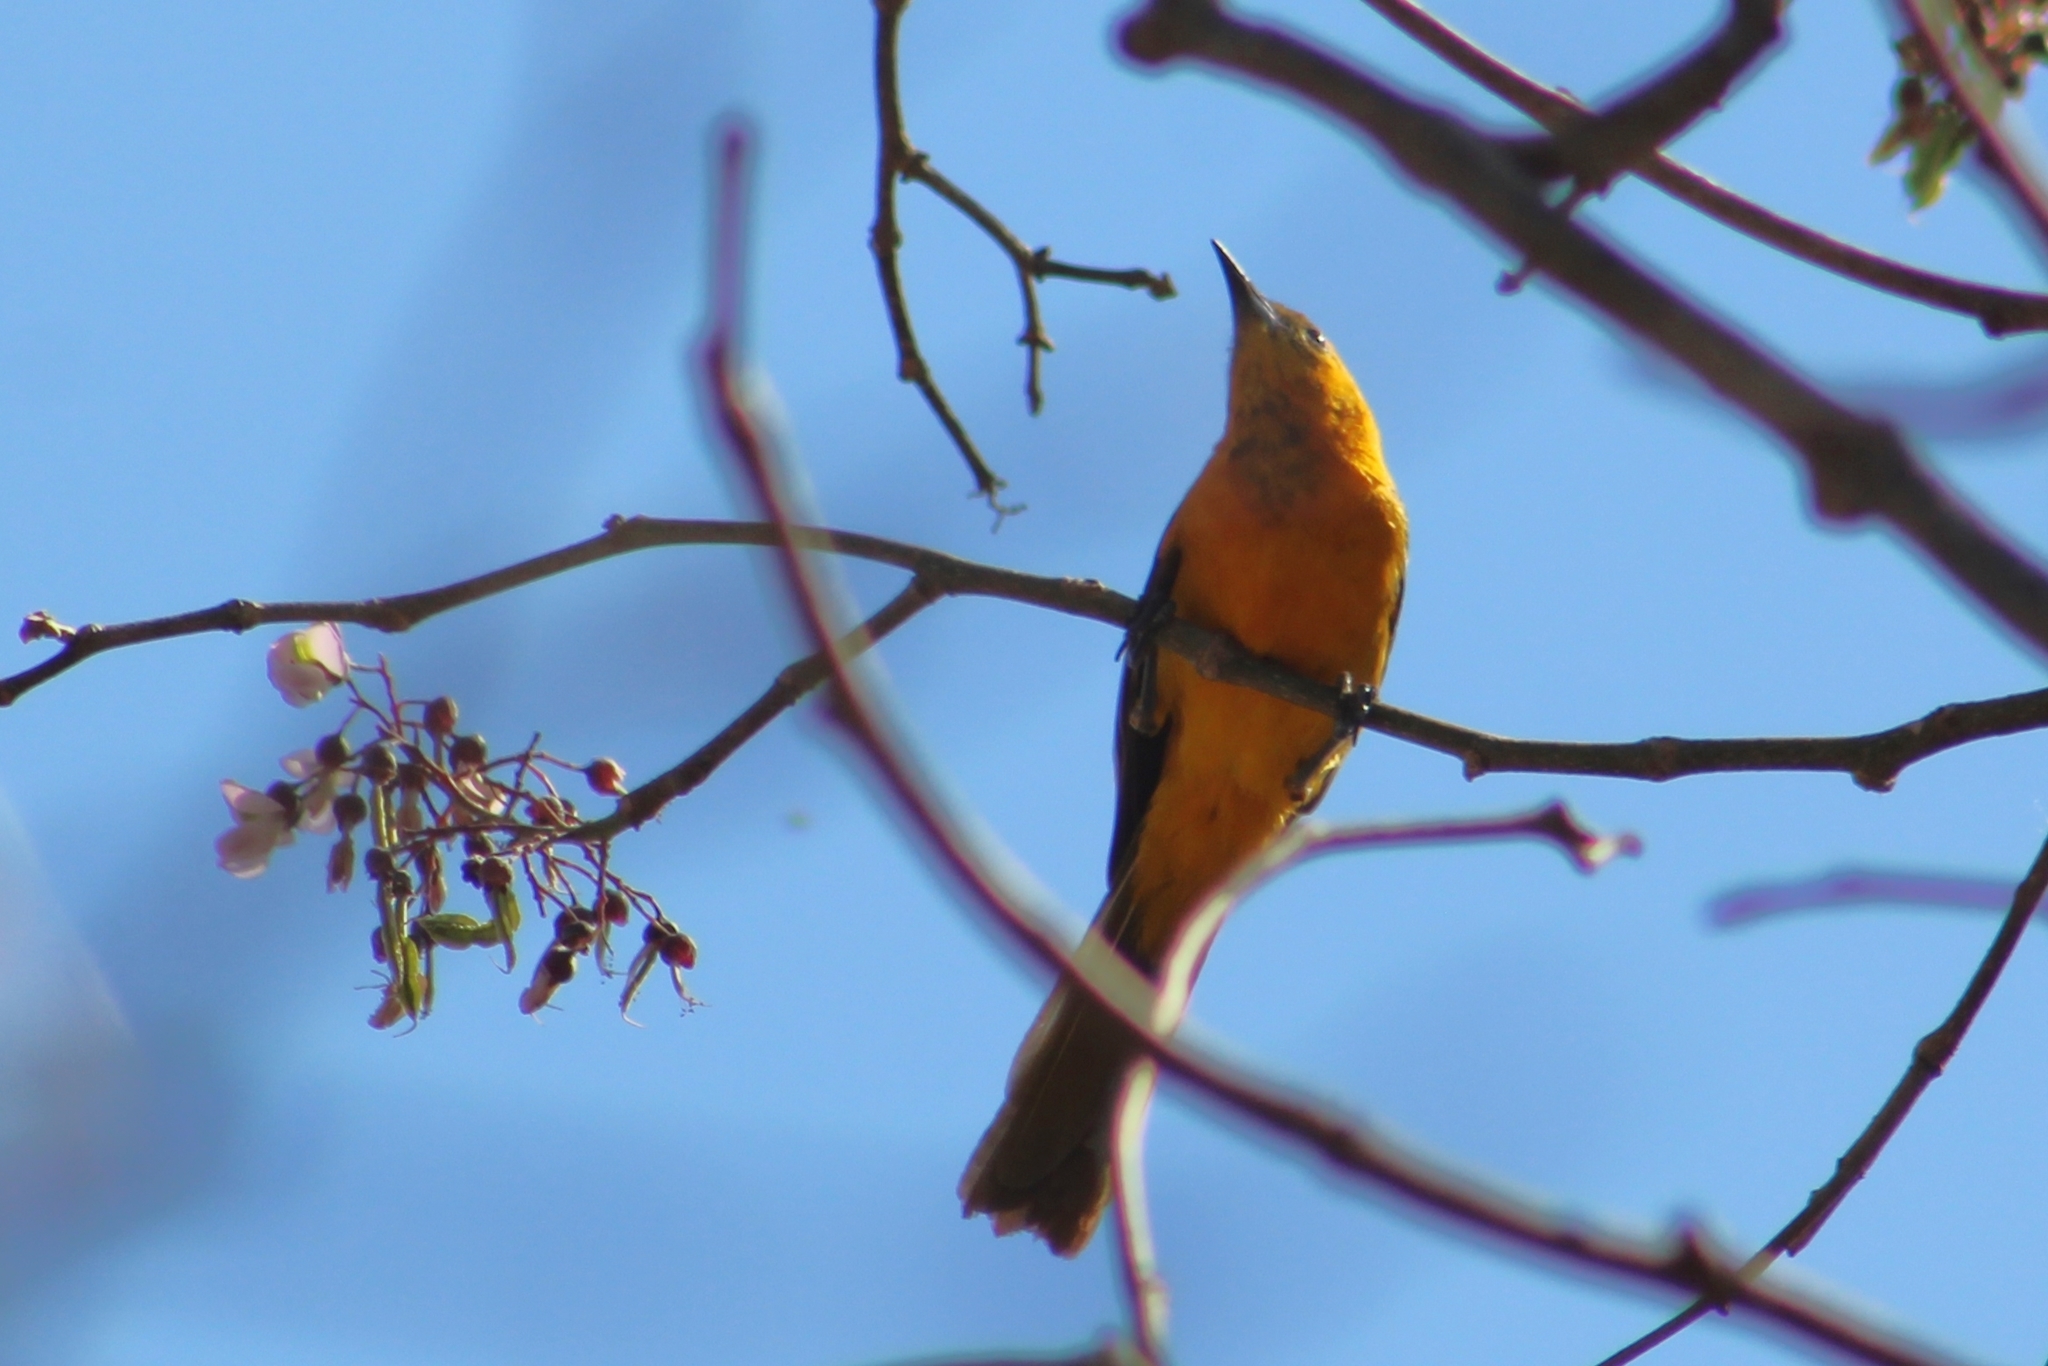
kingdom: Animalia
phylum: Chordata
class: Aves
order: Passeriformes
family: Icteridae
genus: Icterus
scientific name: Icterus cucullatus
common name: Hooded oriole
